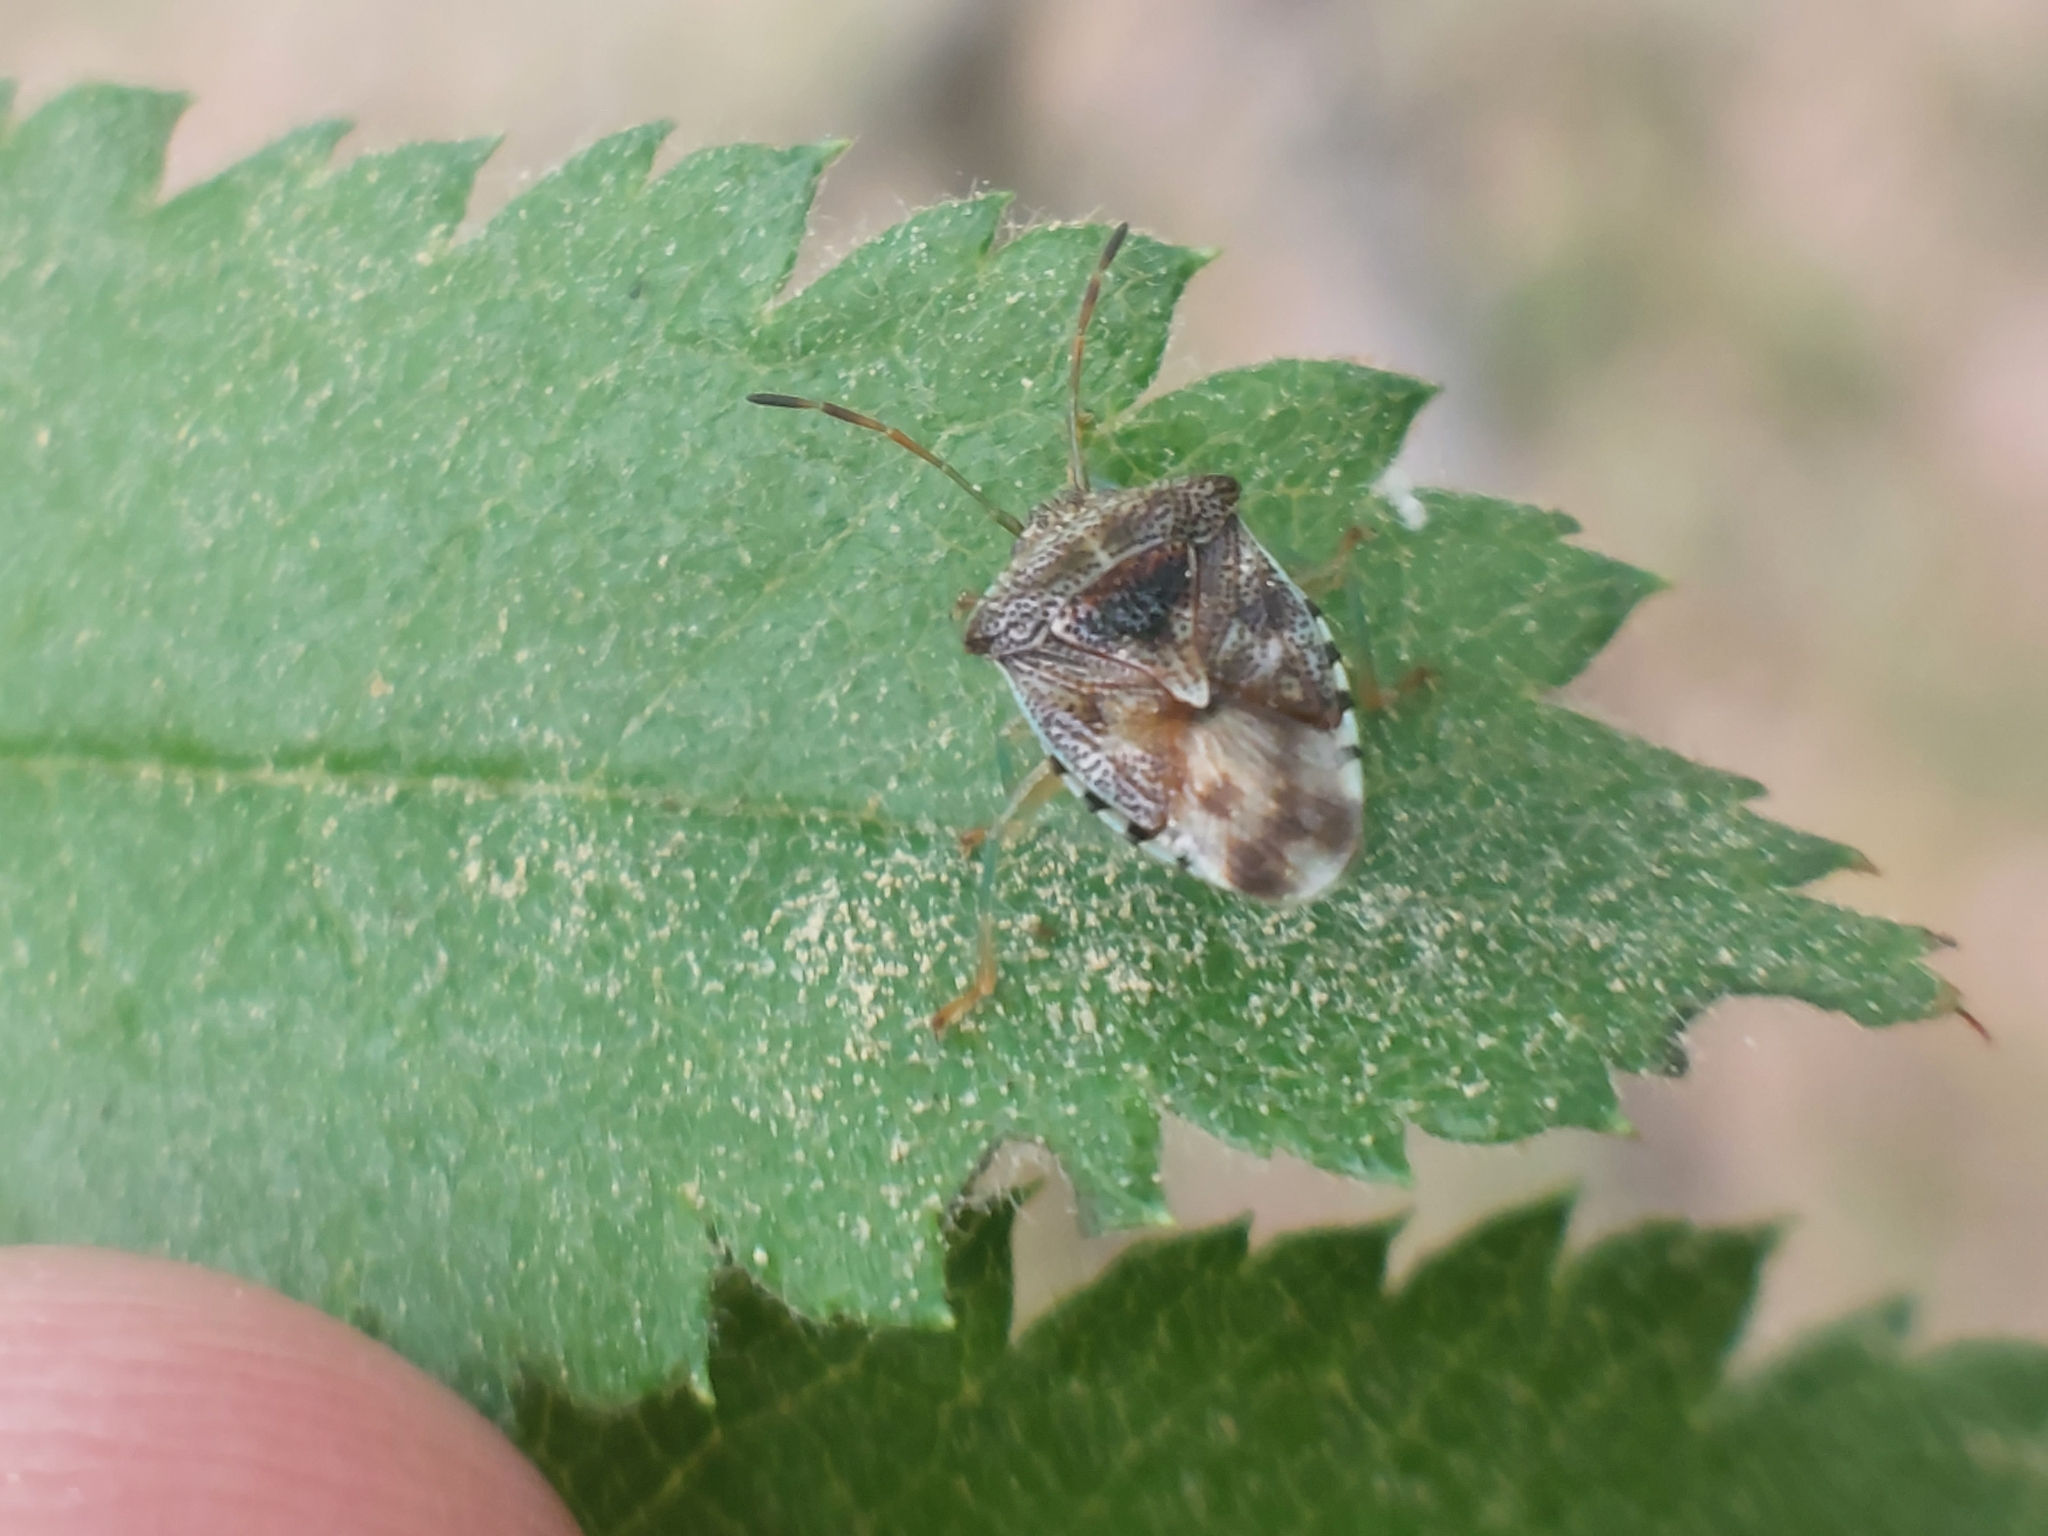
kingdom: Animalia
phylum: Arthropoda
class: Insecta
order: Hemiptera
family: Acanthosomatidae
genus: Elasmucha
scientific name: Elasmucha grisea
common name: Parent bug
